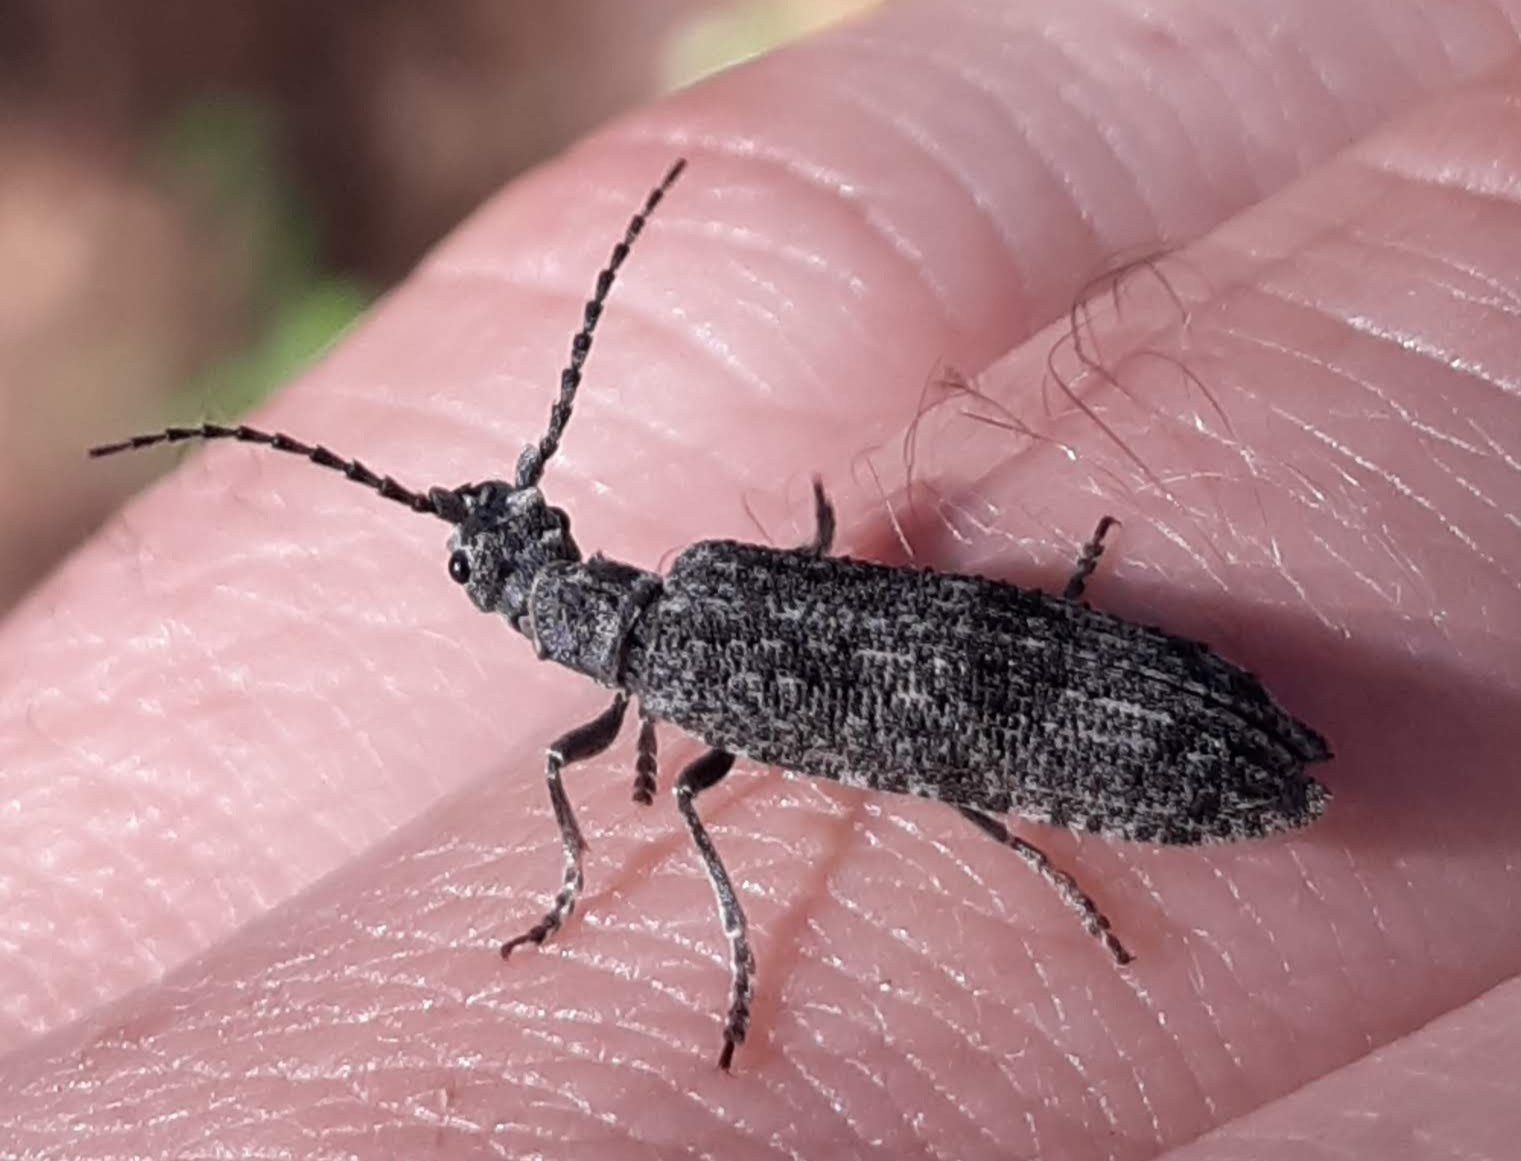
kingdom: Animalia
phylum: Arthropoda
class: Insecta
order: Coleoptera
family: Cupedidae
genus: Priacma
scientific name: Priacma serrata
